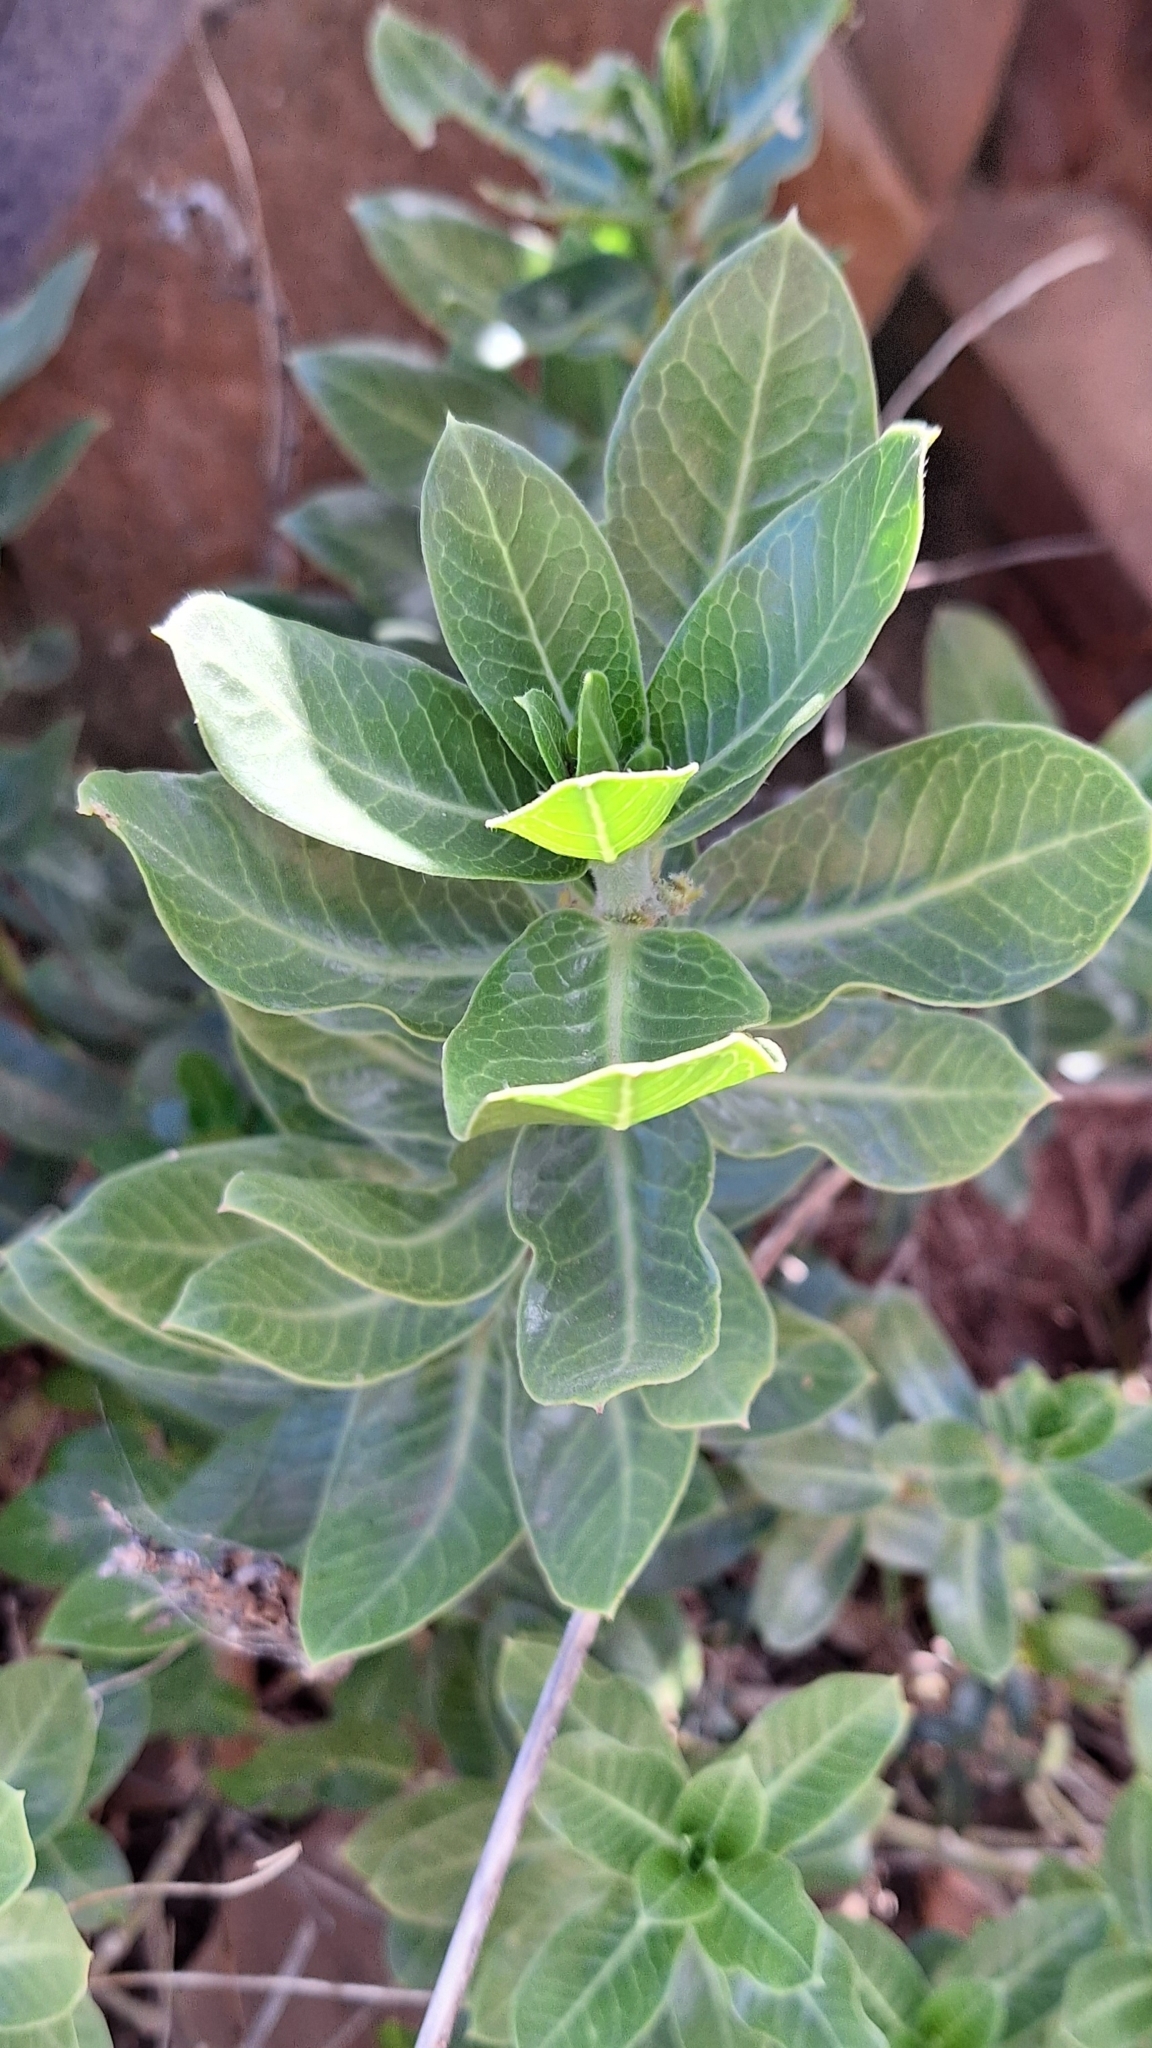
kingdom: Plantae
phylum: Tracheophyta
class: Magnoliopsida
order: Gentianales
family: Apocynaceae
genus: Gomphocarpus
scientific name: Gomphocarpus cancellatus
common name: Wild cotton
